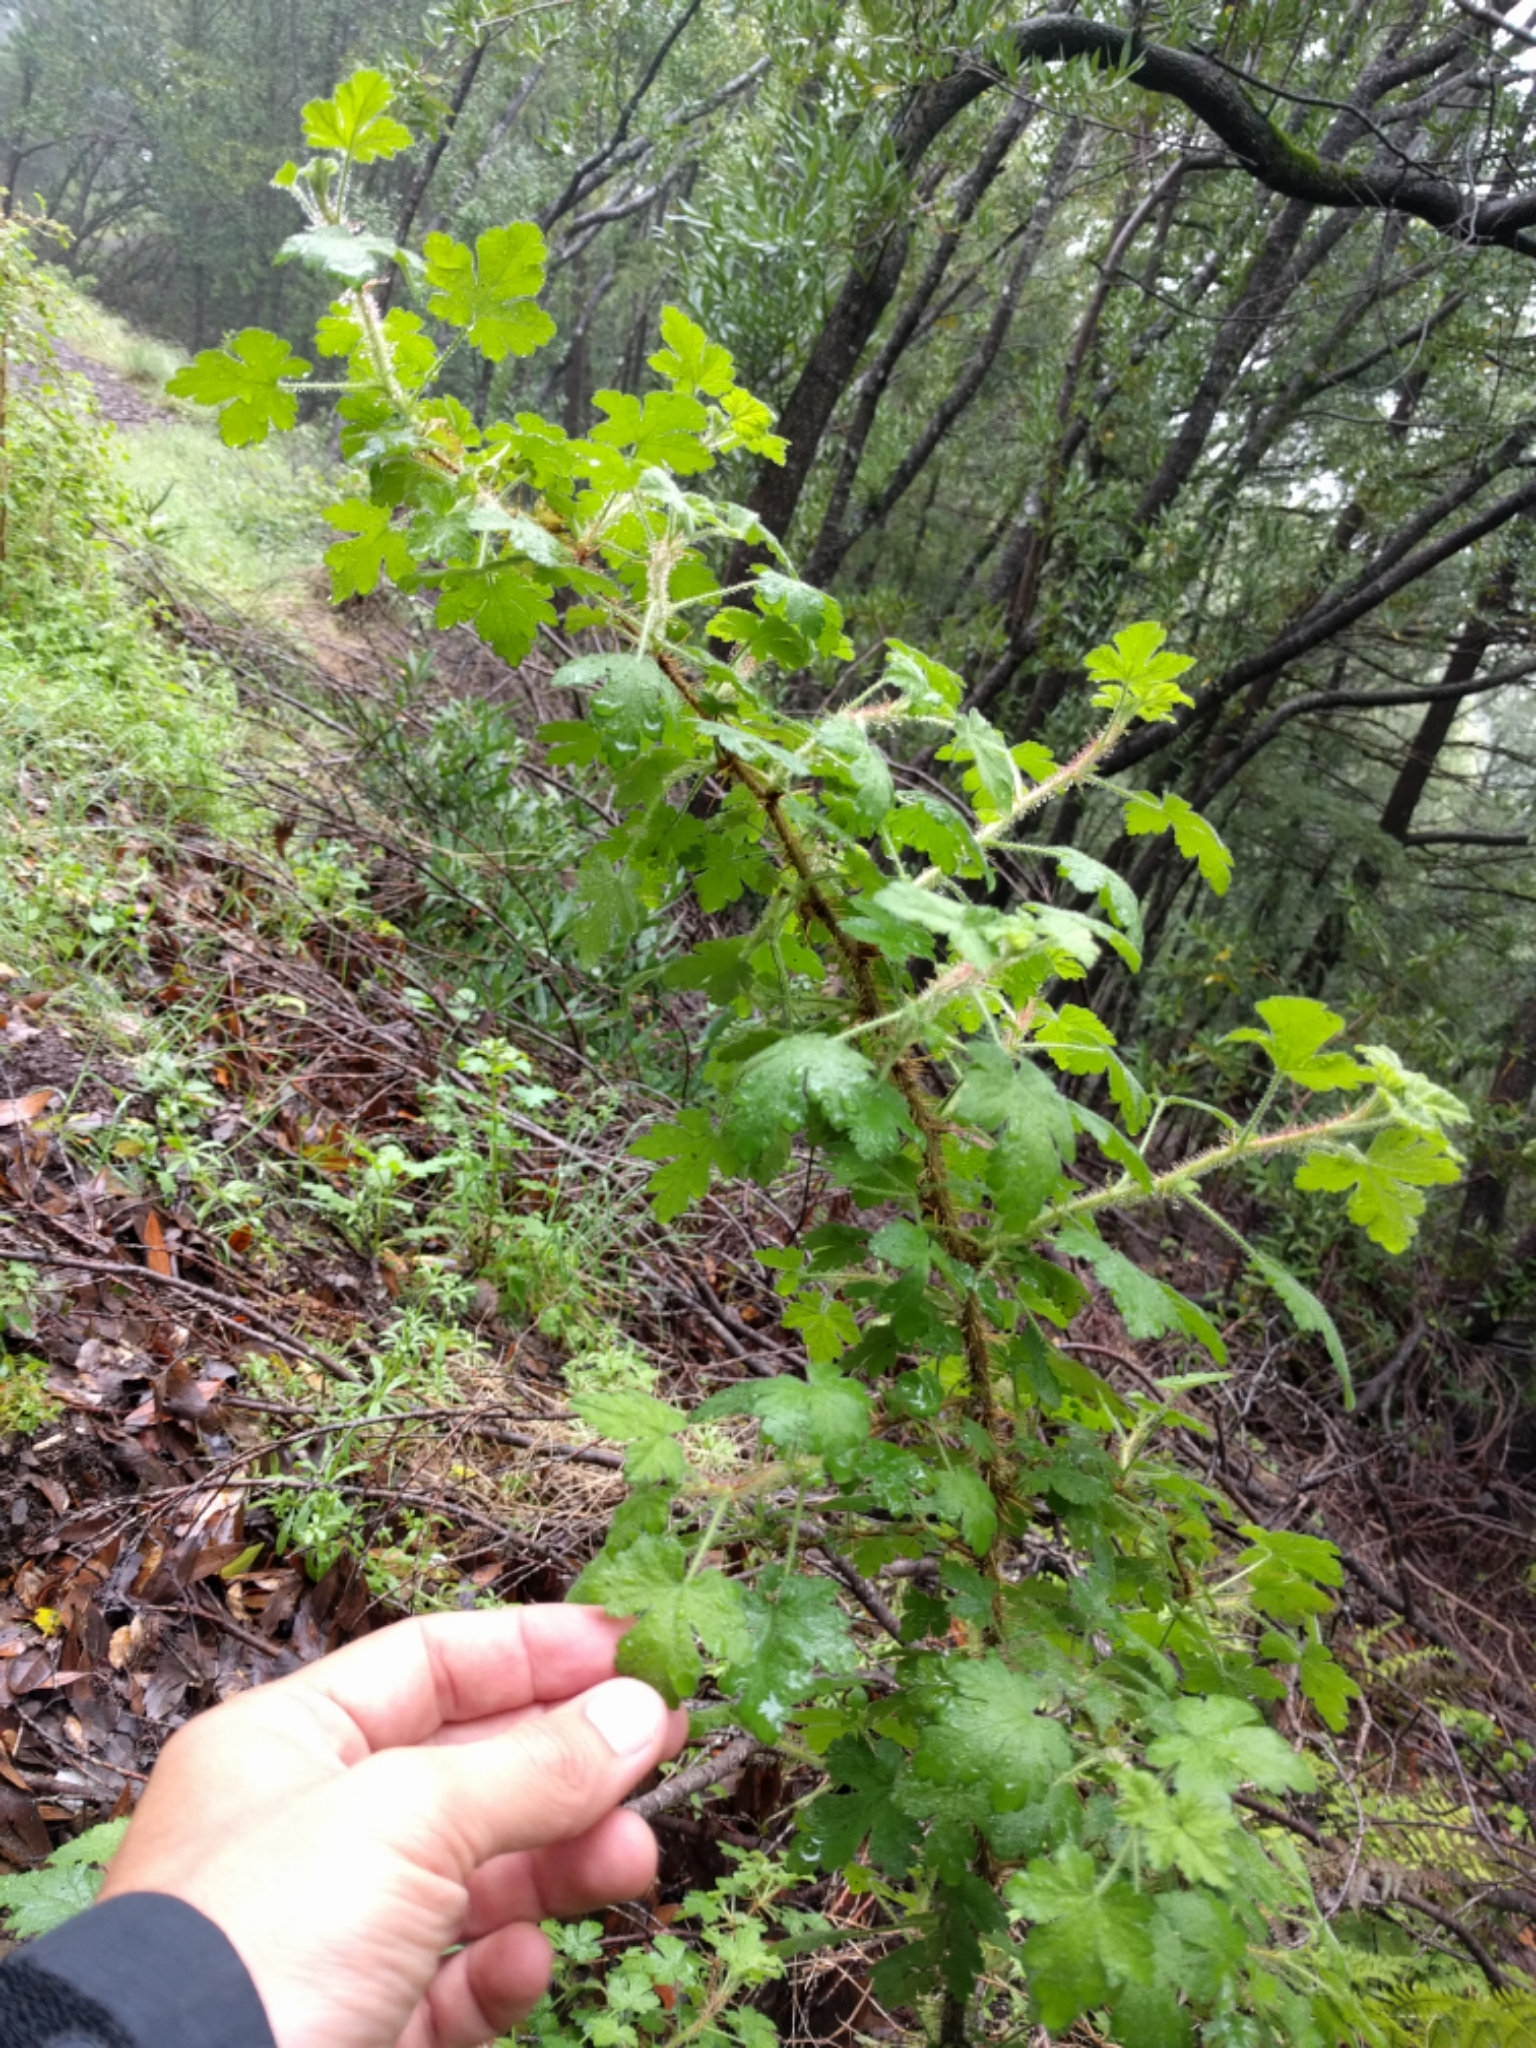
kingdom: Plantae
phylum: Tracheophyta
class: Magnoliopsida
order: Saxifragales
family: Grossulariaceae
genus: Ribes
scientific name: Ribes menziesii
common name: Canyon gooseberry
